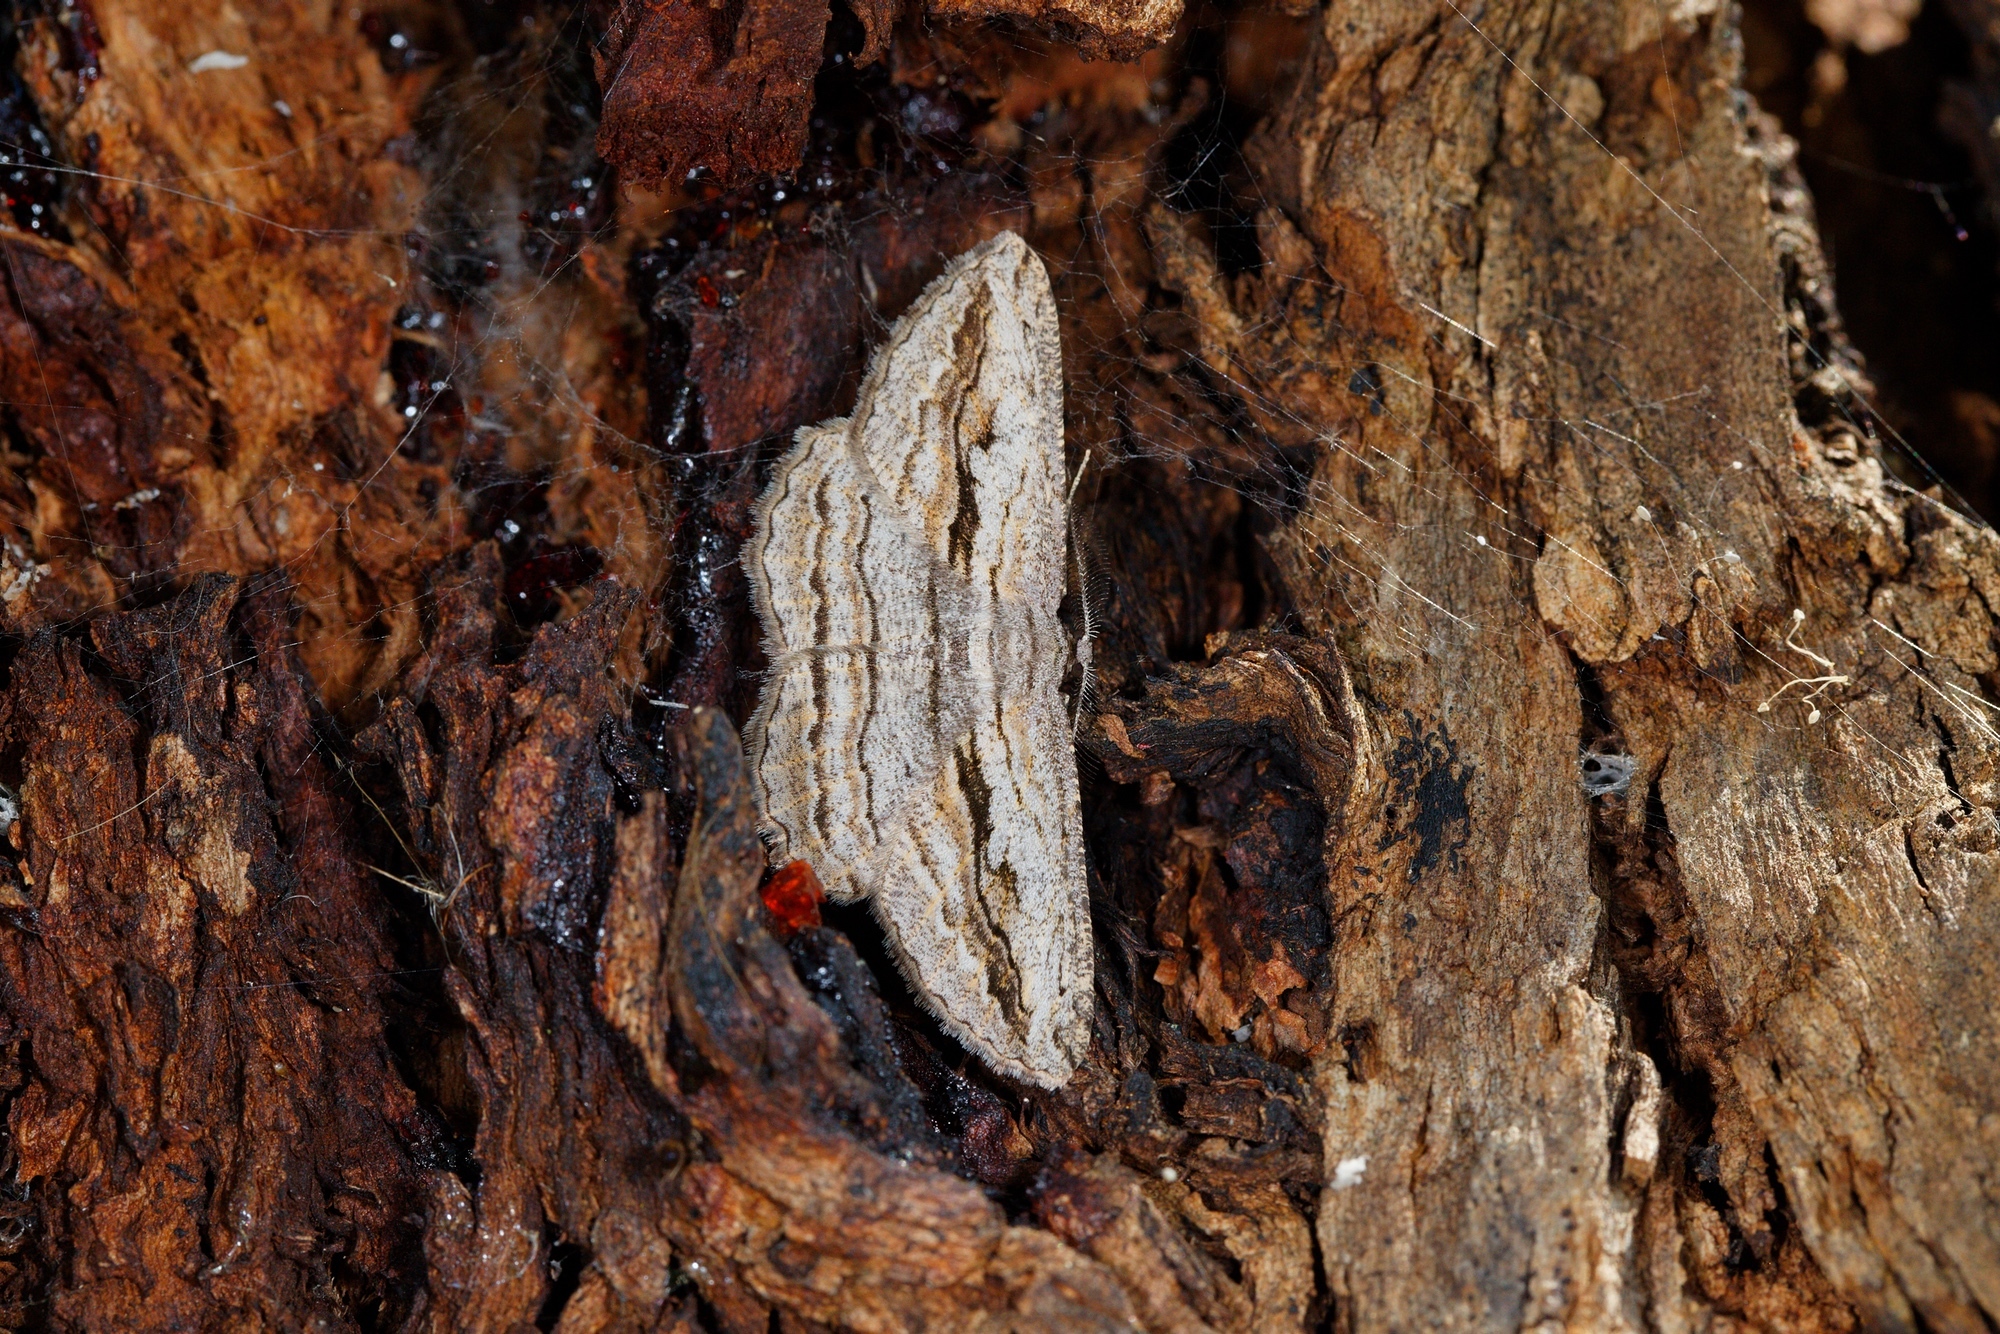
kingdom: Animalia
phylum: Arthropoda
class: Insecta
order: Lepidoptera
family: Geometridae
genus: Scioglyptis
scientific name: Scioglyptis loxographa
